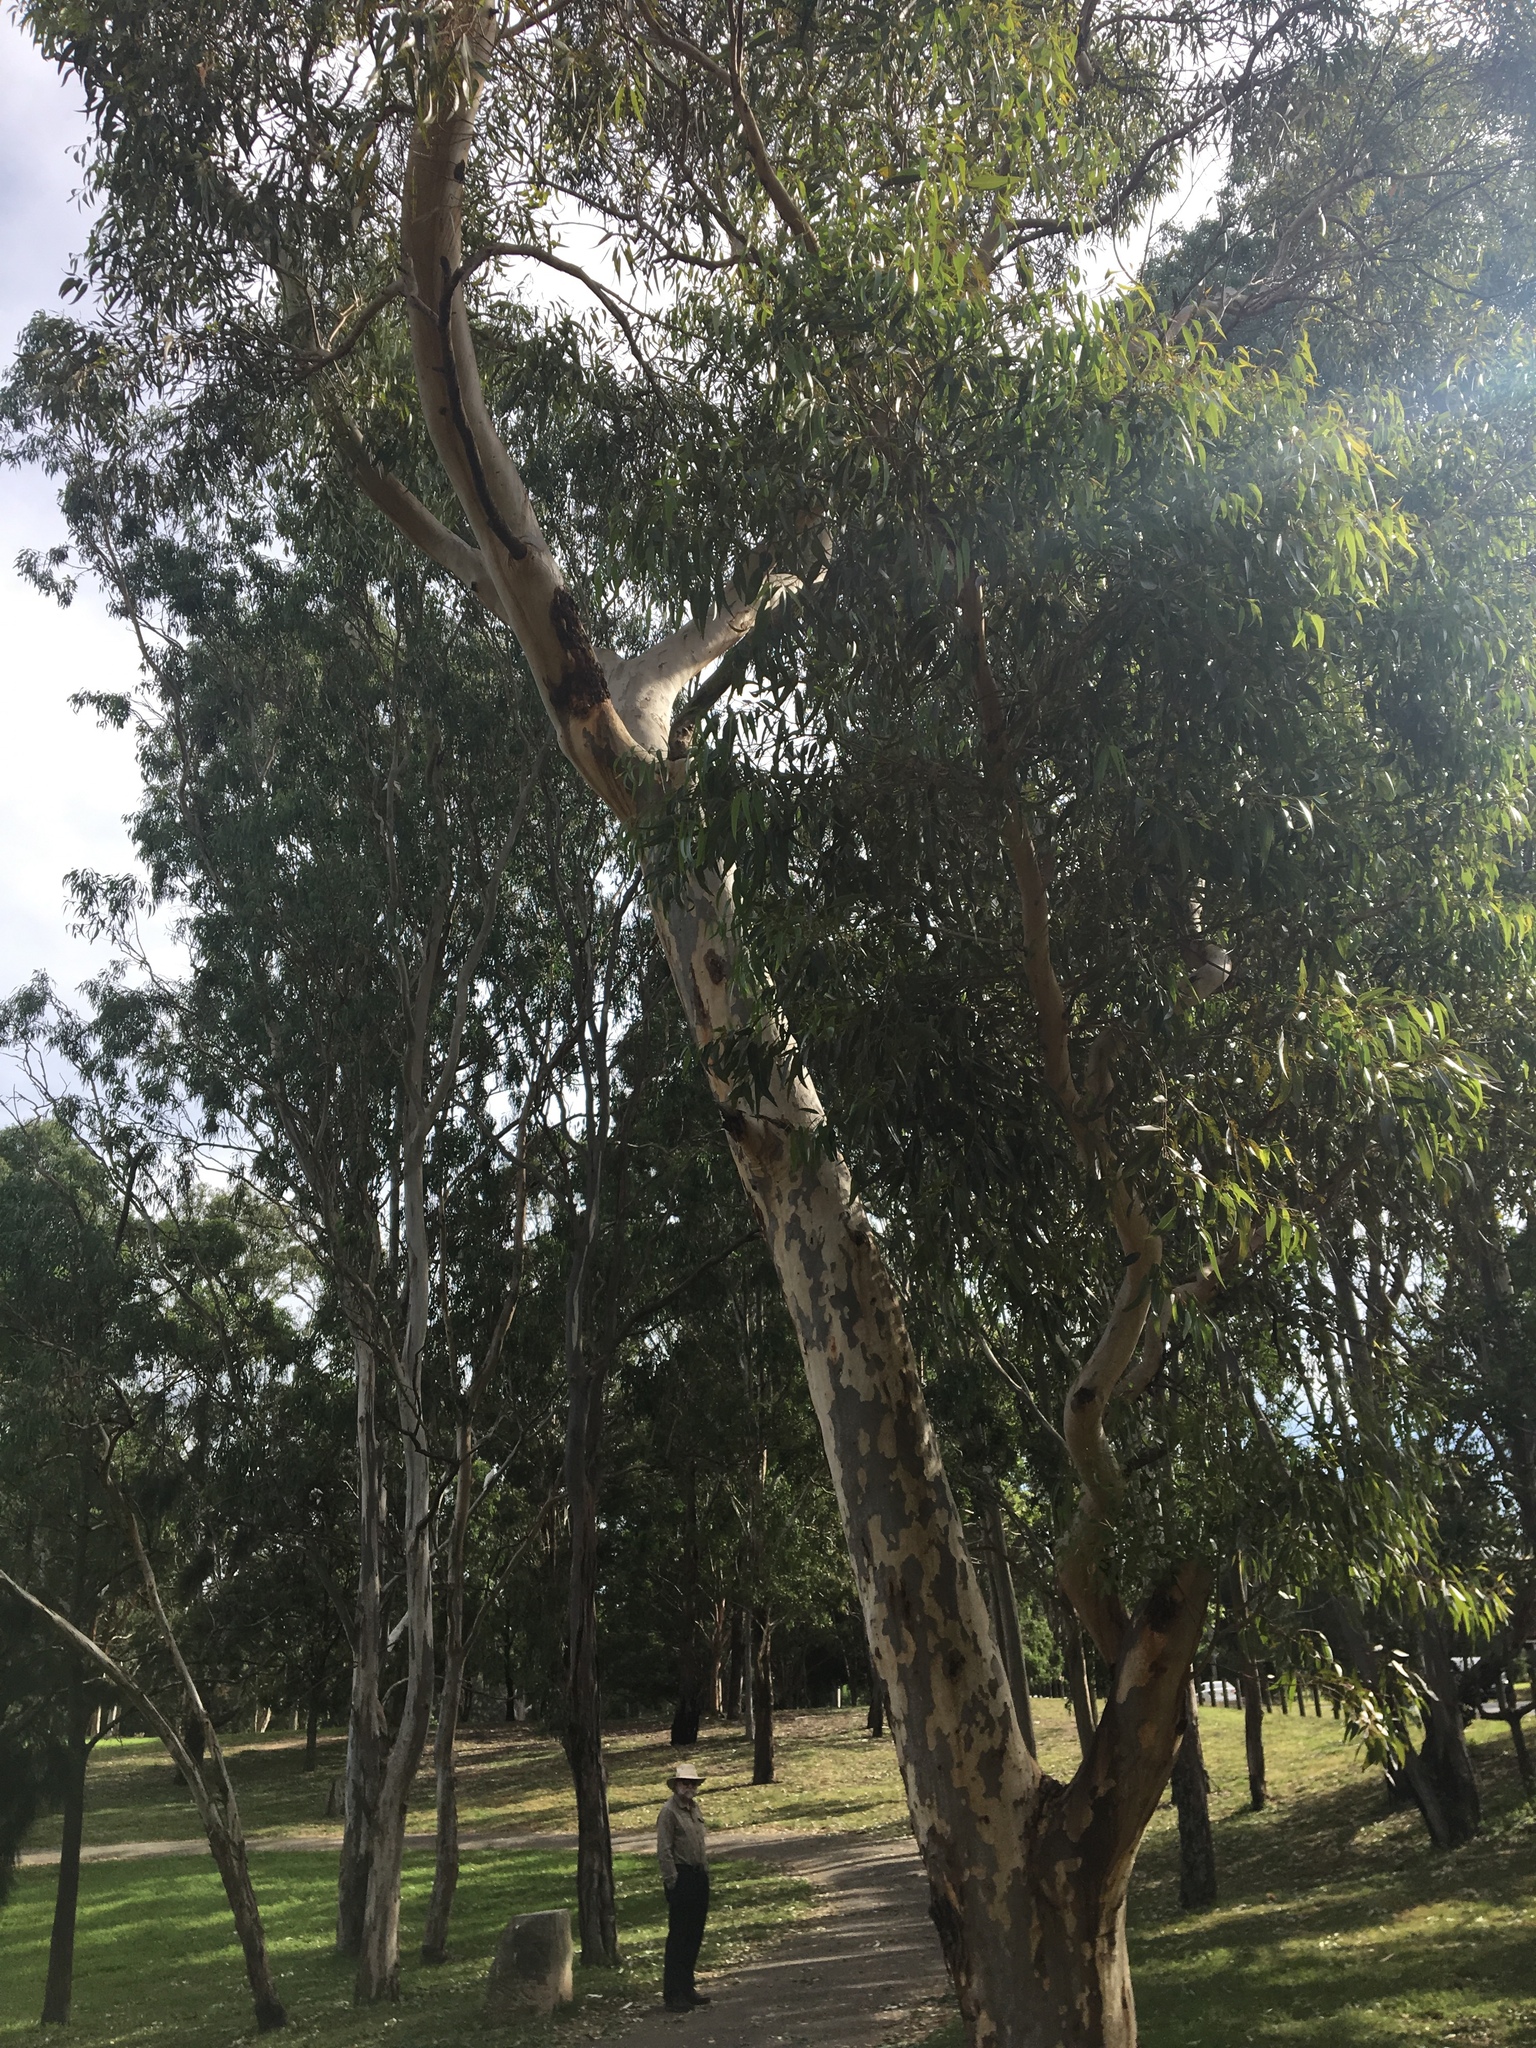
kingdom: Plantae
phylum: Tracheophyta
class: Magnoliopsida
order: Myrtales
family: Myrtaceae
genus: Eucalyptus
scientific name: Eucalyptus cladocalyx
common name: Sugargum
